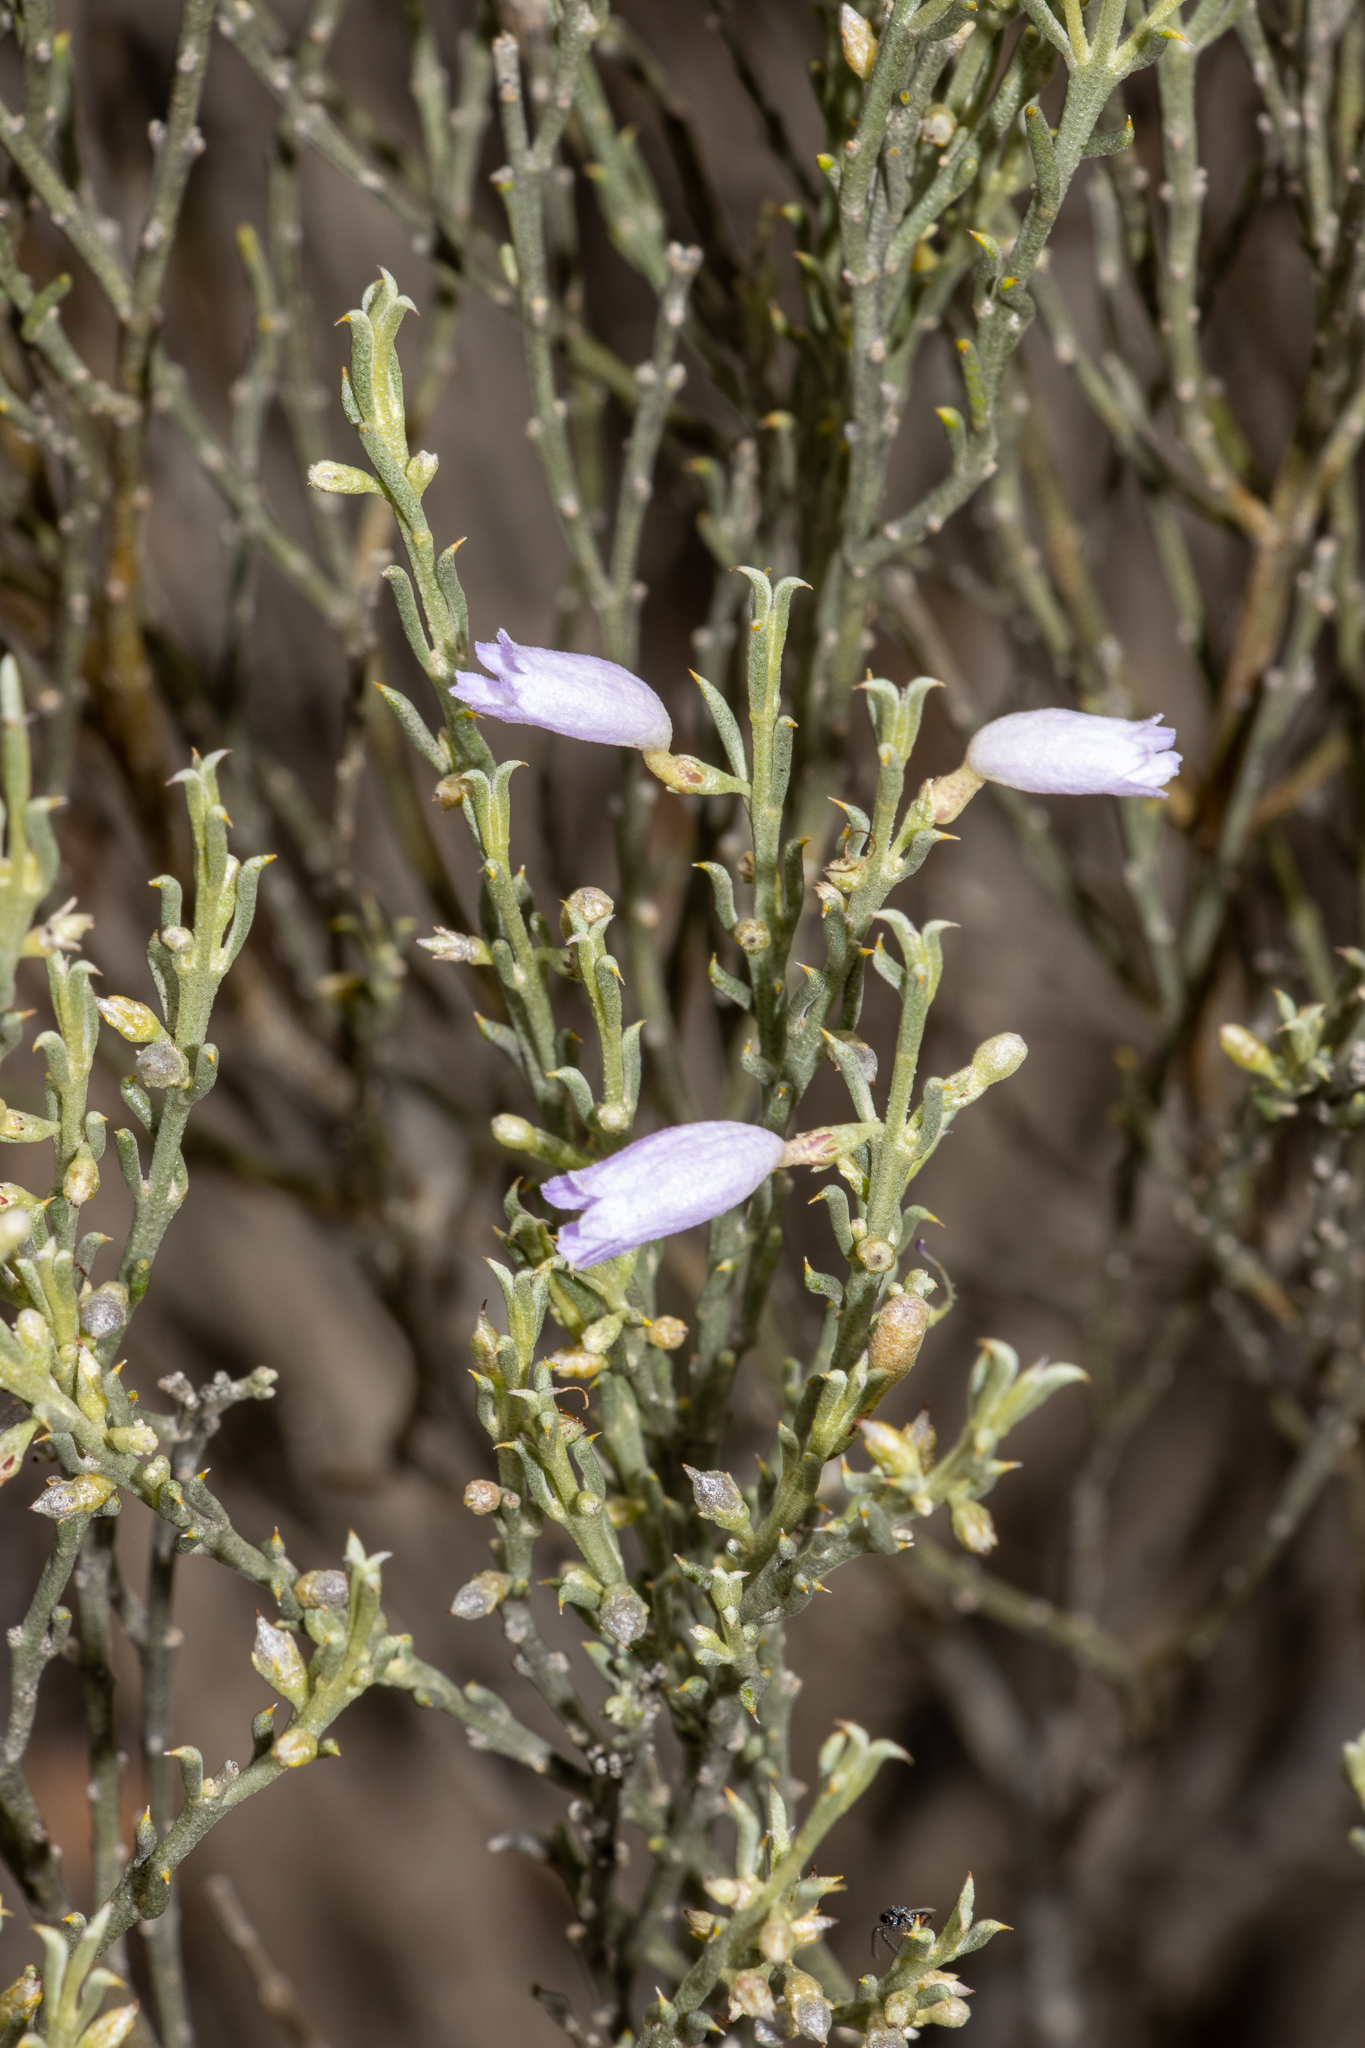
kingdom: Plantae
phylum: Tracheophyta
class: Magnoliopsida
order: Lamiales
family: Scrophulariaceae
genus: Eremophila
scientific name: Eremophila scoparia
